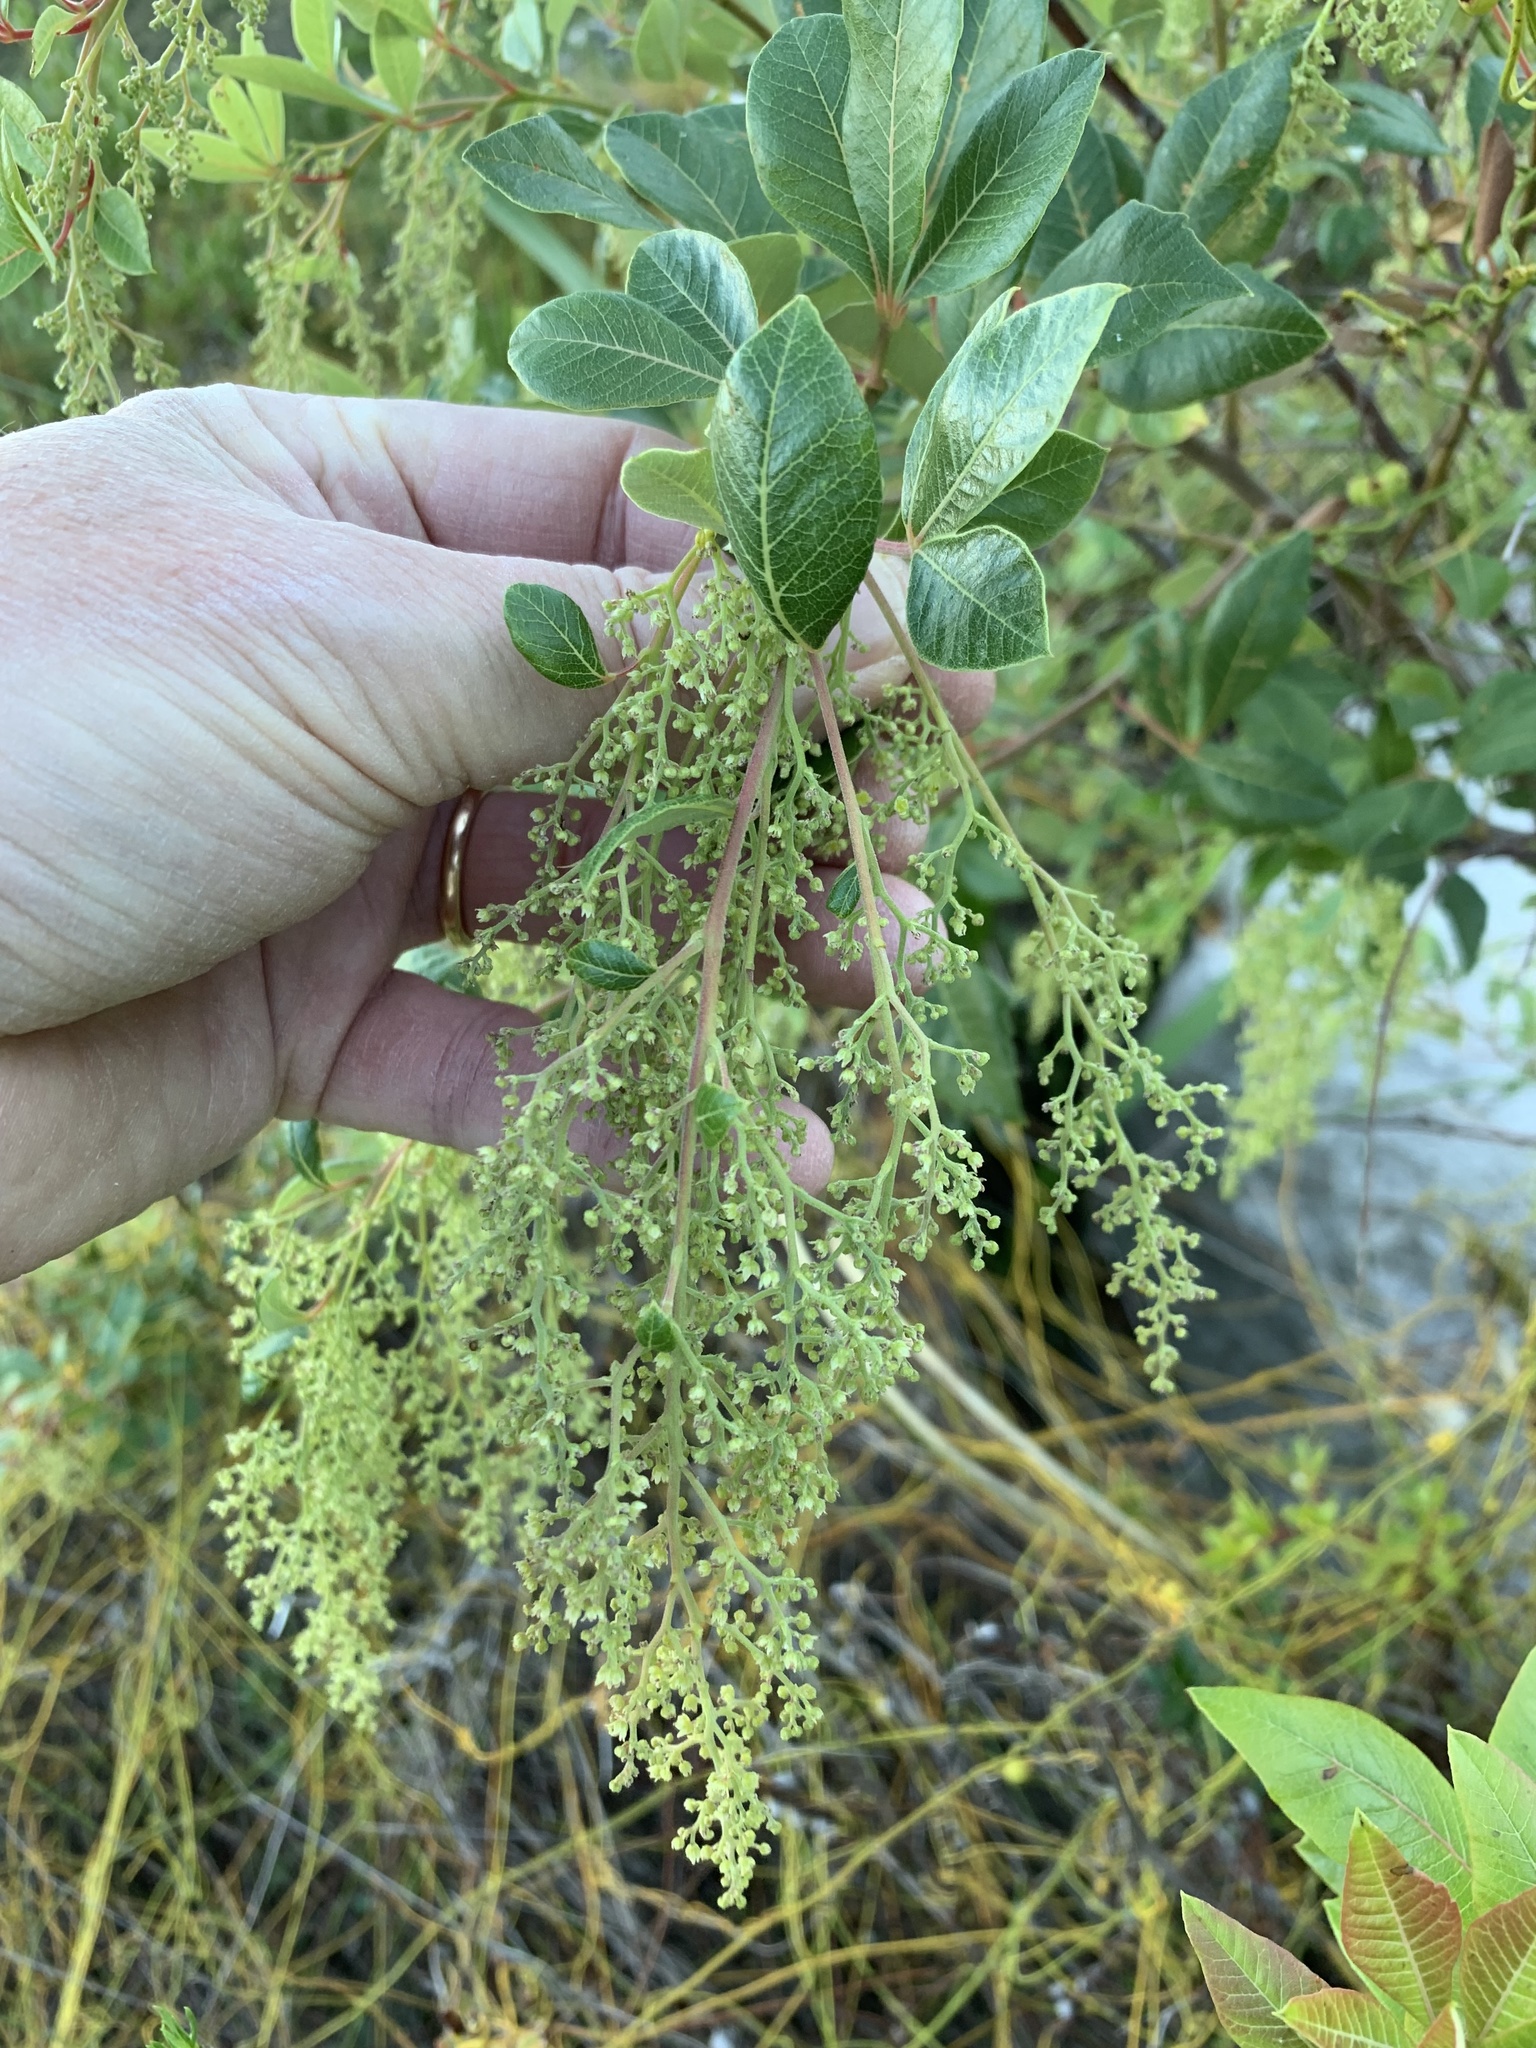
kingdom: Plantae
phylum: Tracheophyta
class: Magnoliopsida
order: Sapindales
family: Anacardiaceae
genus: Searsia
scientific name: Searsia tomentosa
